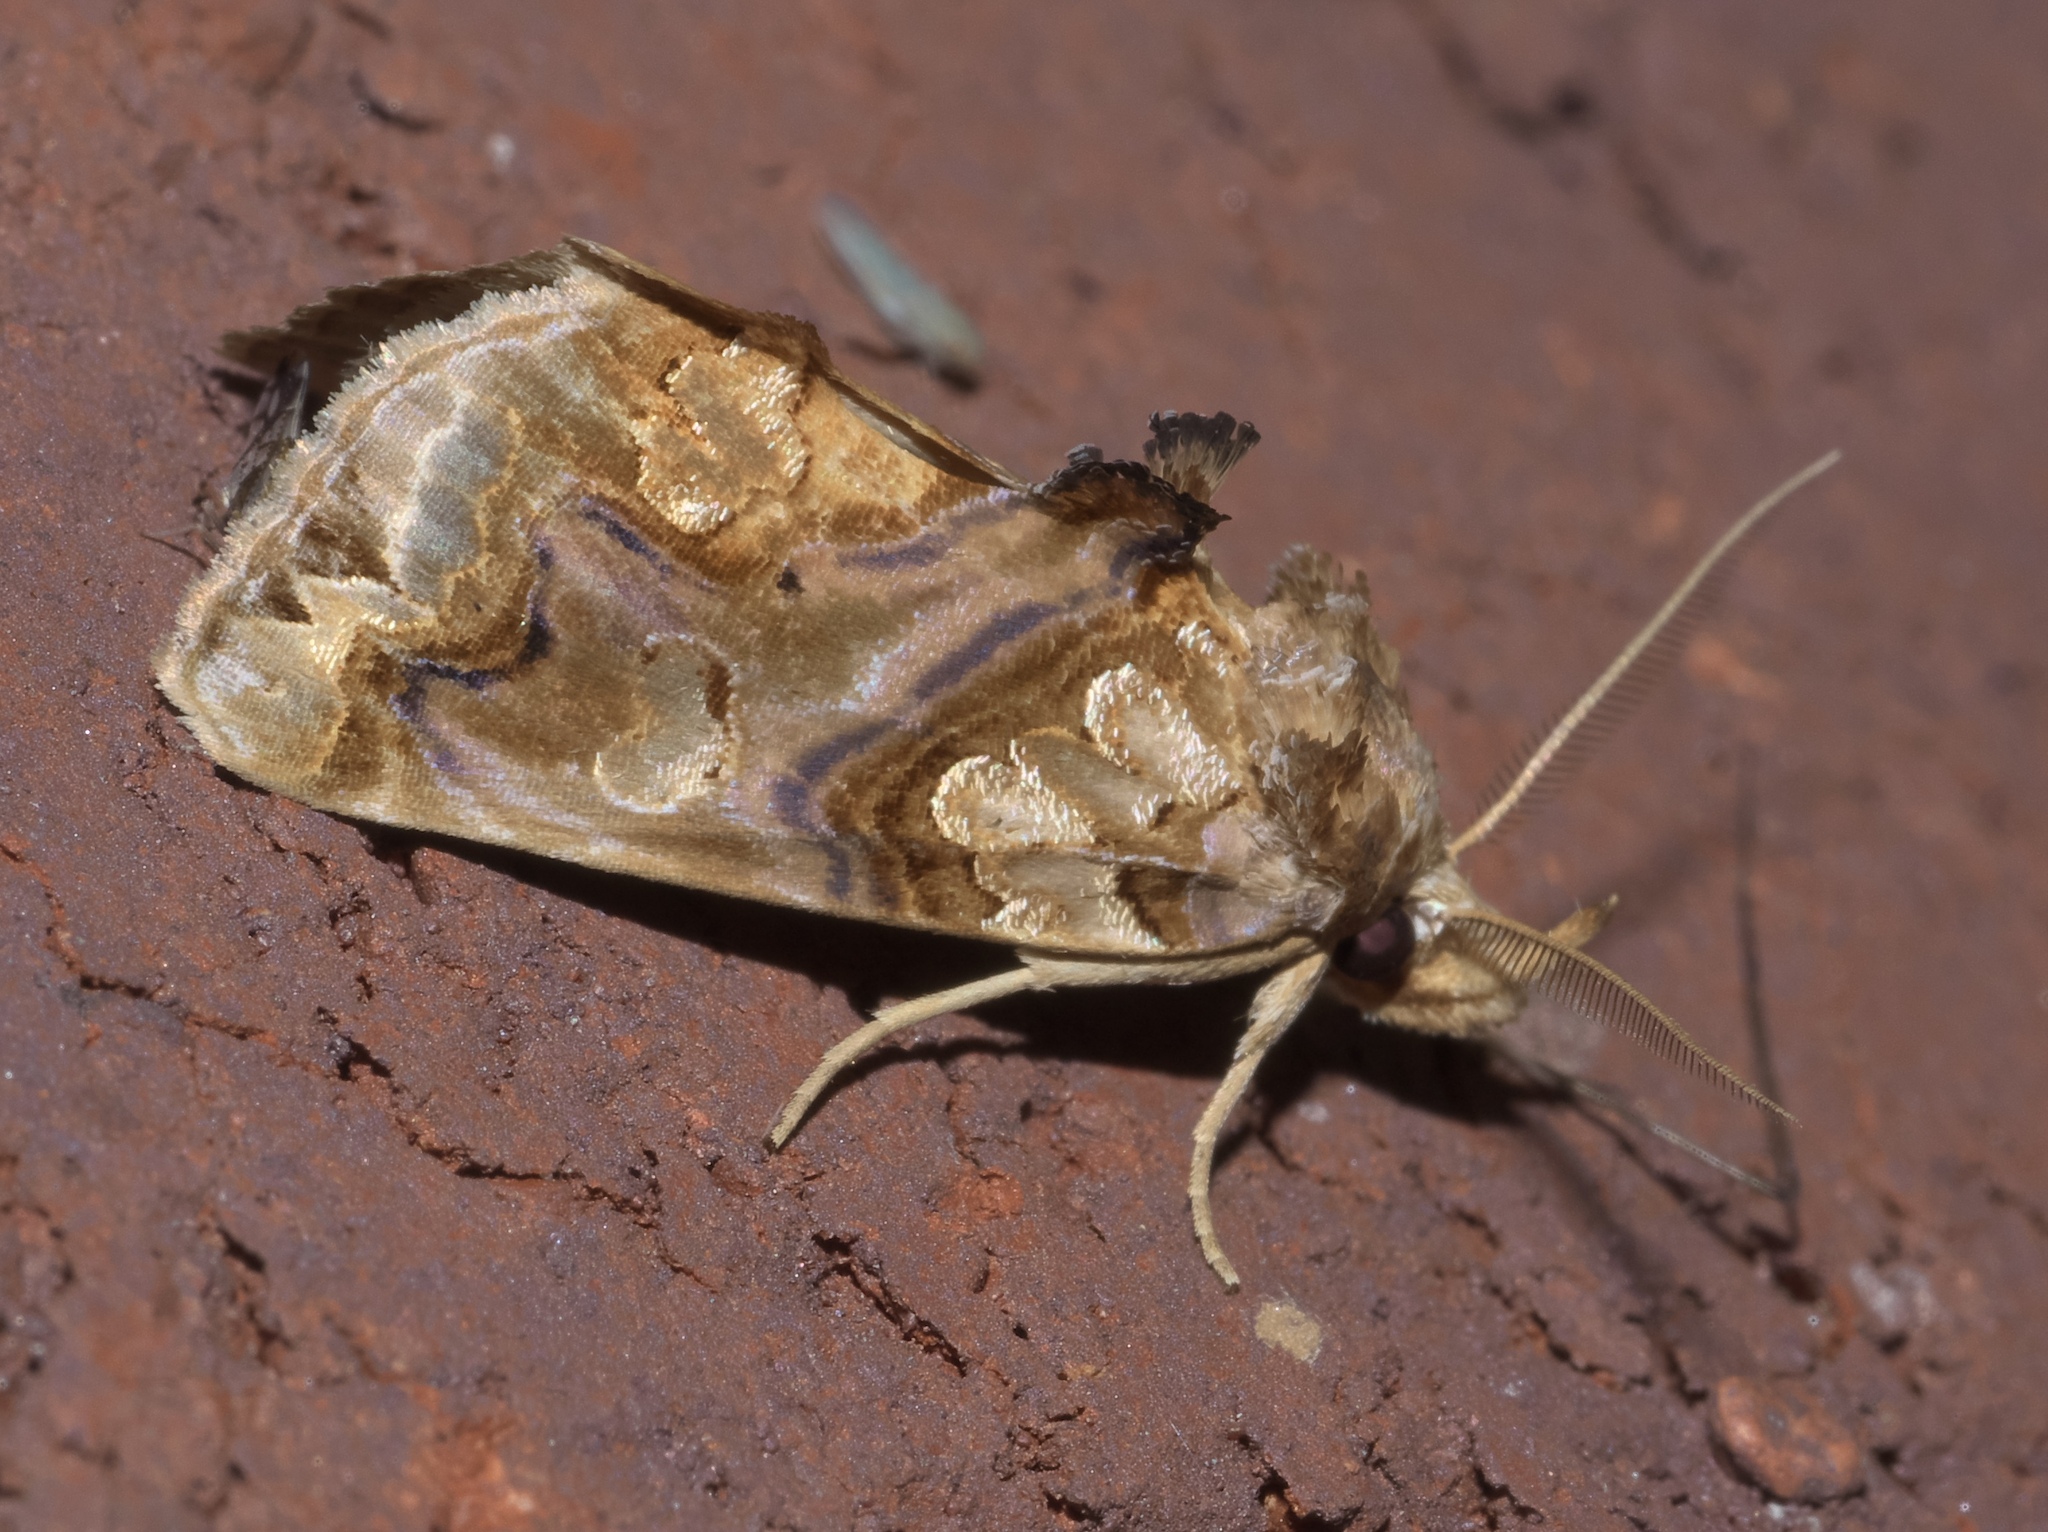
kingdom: Animalia
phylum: Arthropoda
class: Insecta
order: Lepidoptera
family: Erebidae
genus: Plusiodonta
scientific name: Plusiodonta compressipalpis
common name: Moonseed moth
